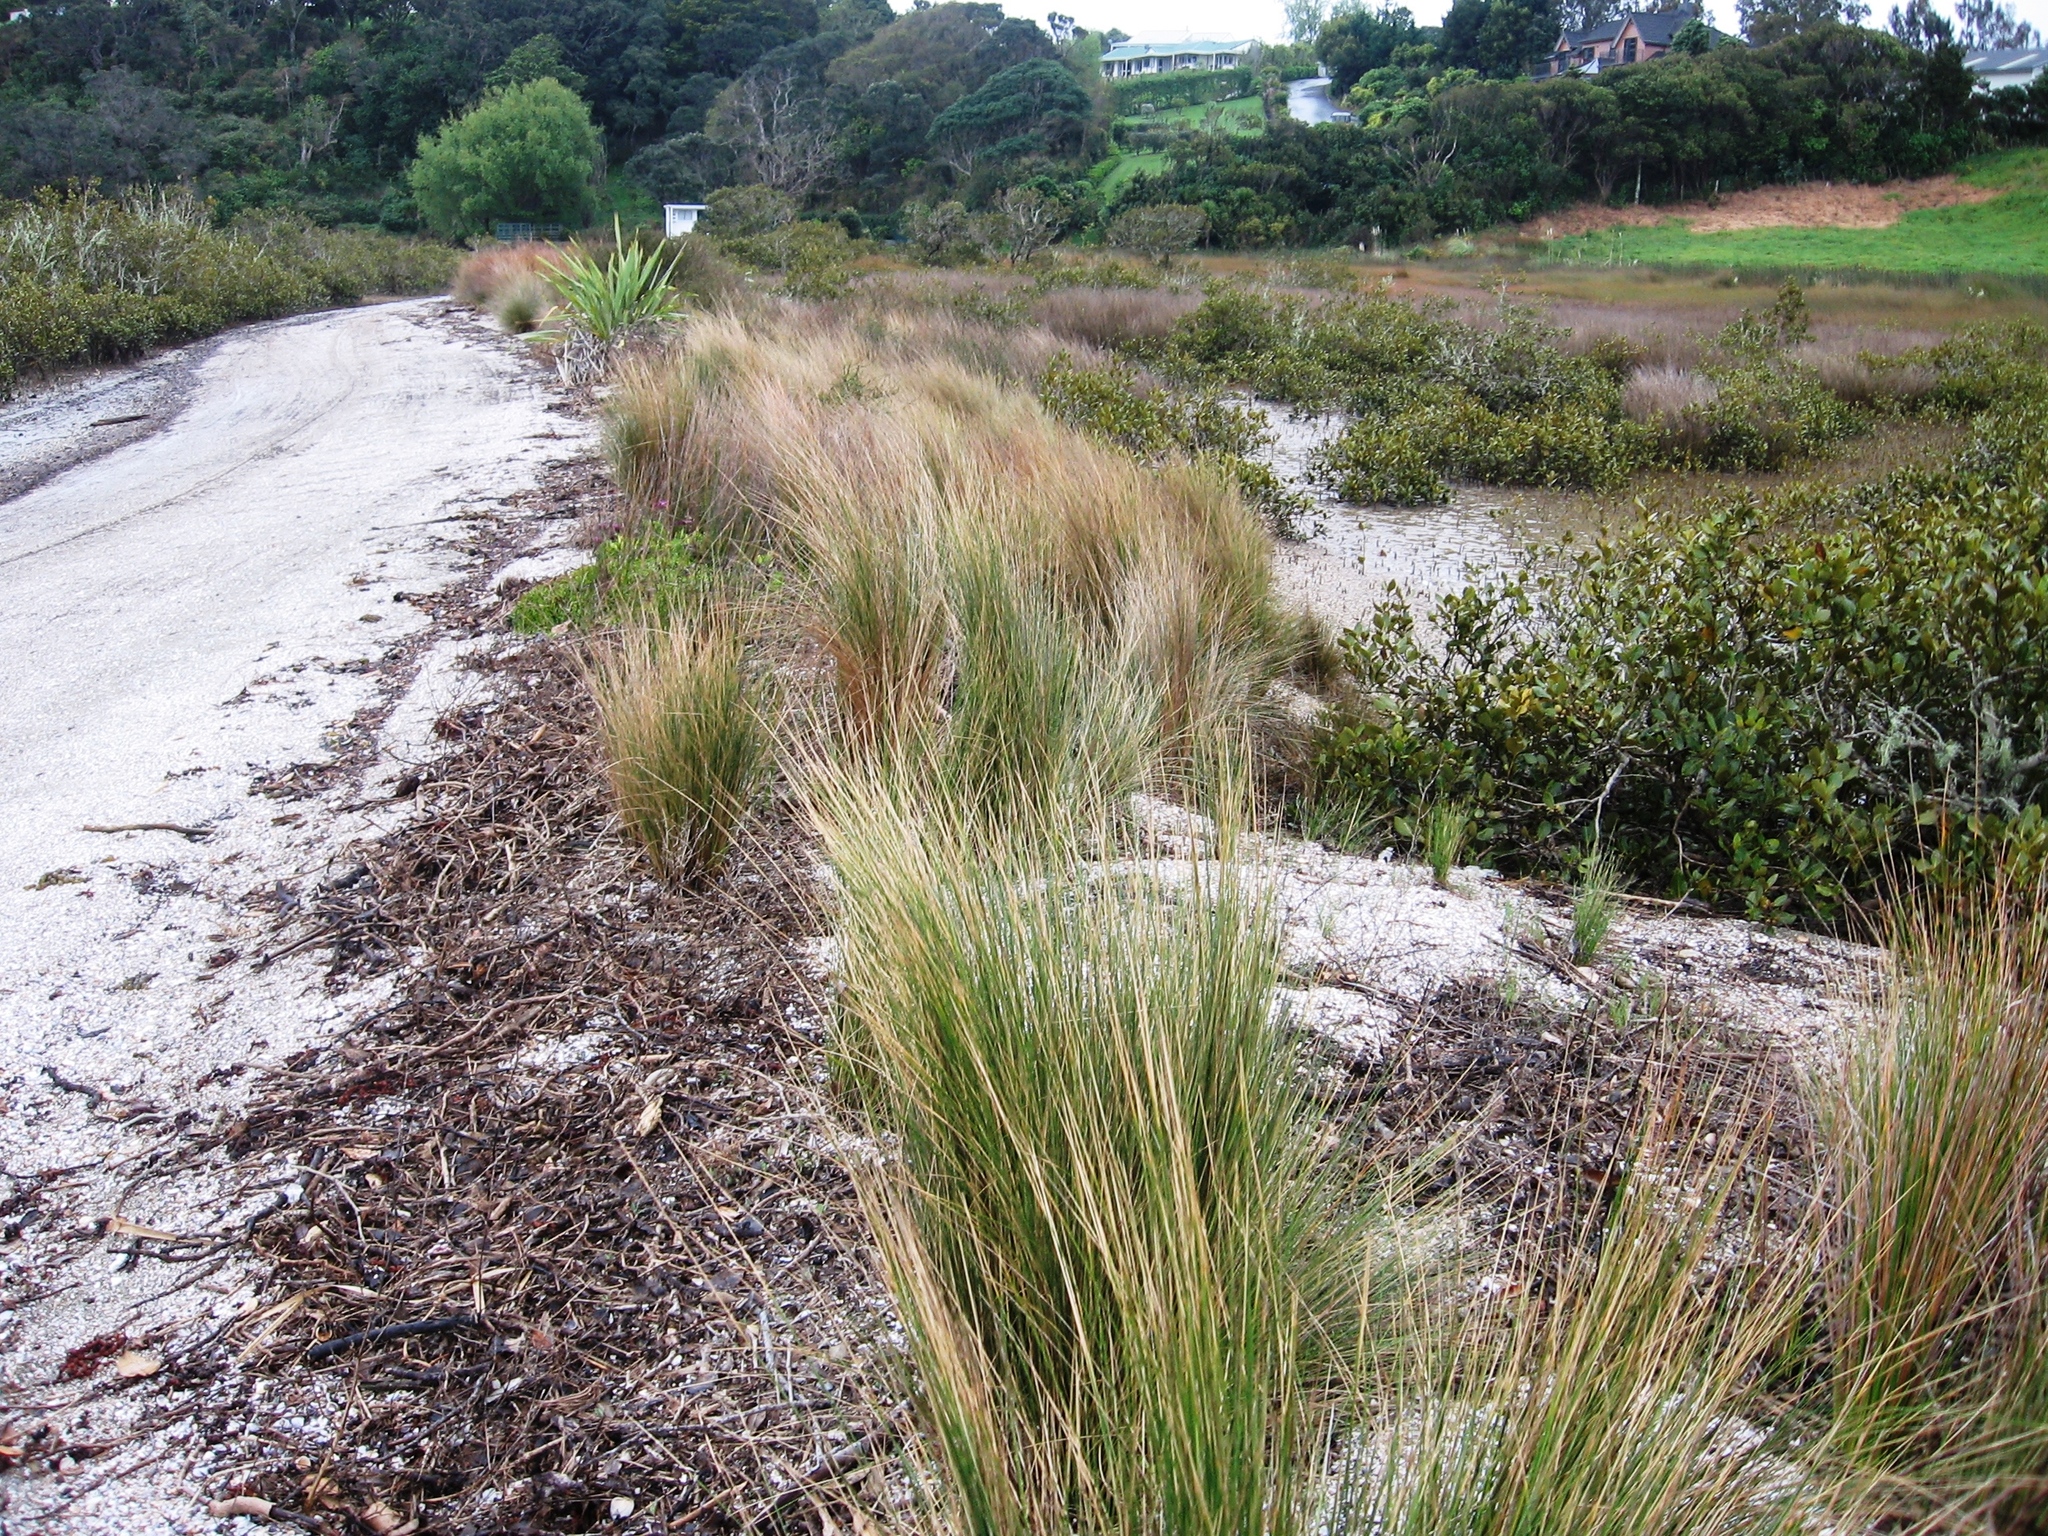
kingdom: Plantae
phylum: Tracheophyta
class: Liliopsida
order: Poales
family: Poaceae
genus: Austrostipa
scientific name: Austrostipa stipoides
